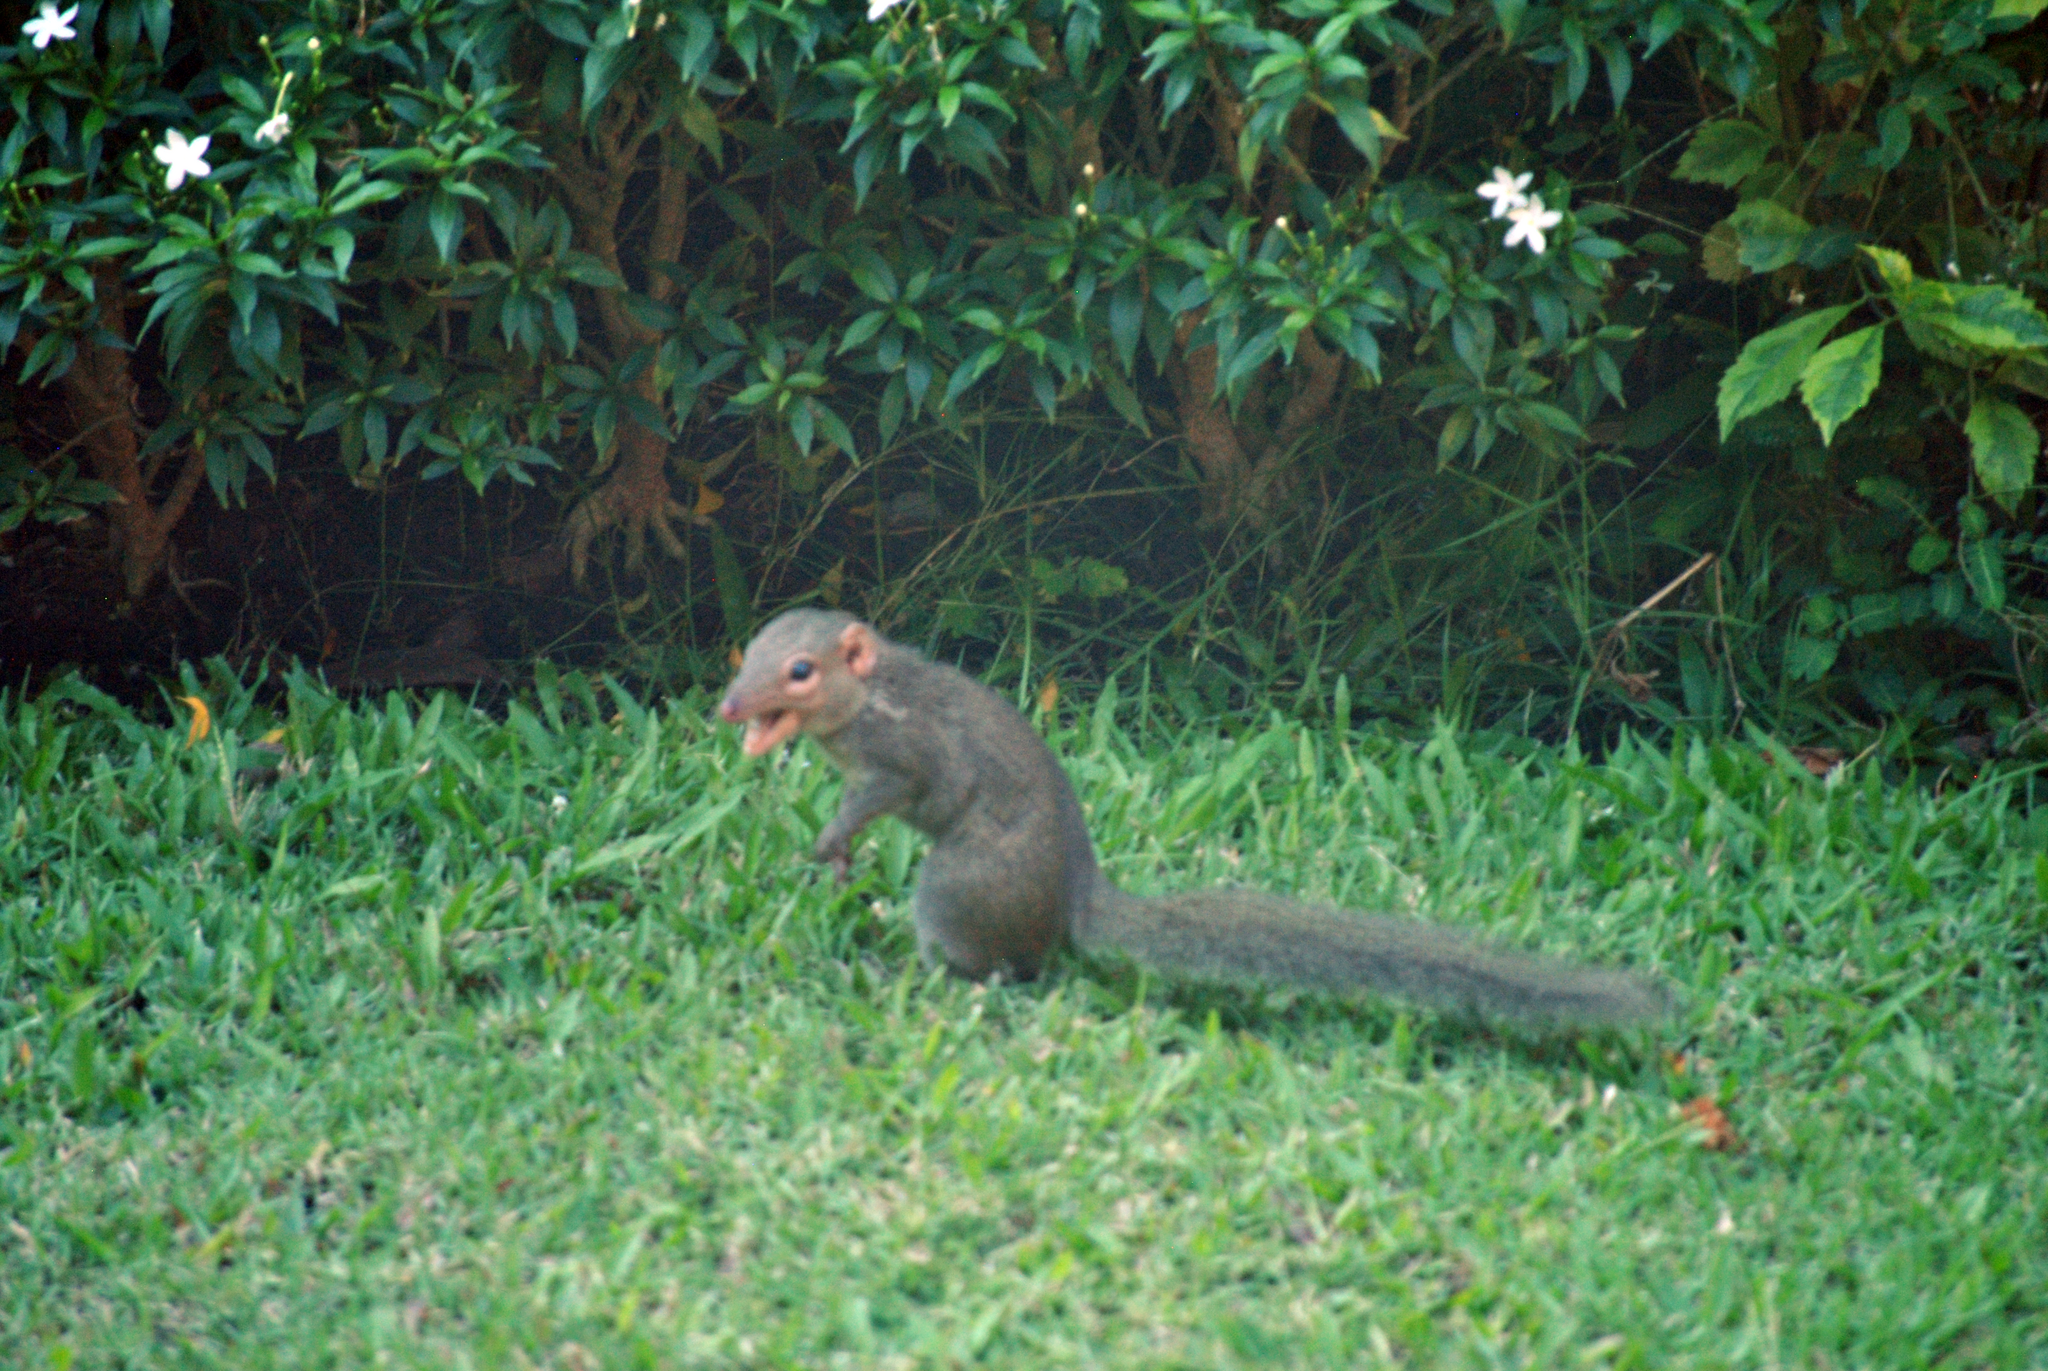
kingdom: Animalia
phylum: Chordata
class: Mammalia
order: Scandentia
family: Tupaiidae
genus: Tupaia
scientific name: Tupaia belangeri
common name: Northern treeshrew
